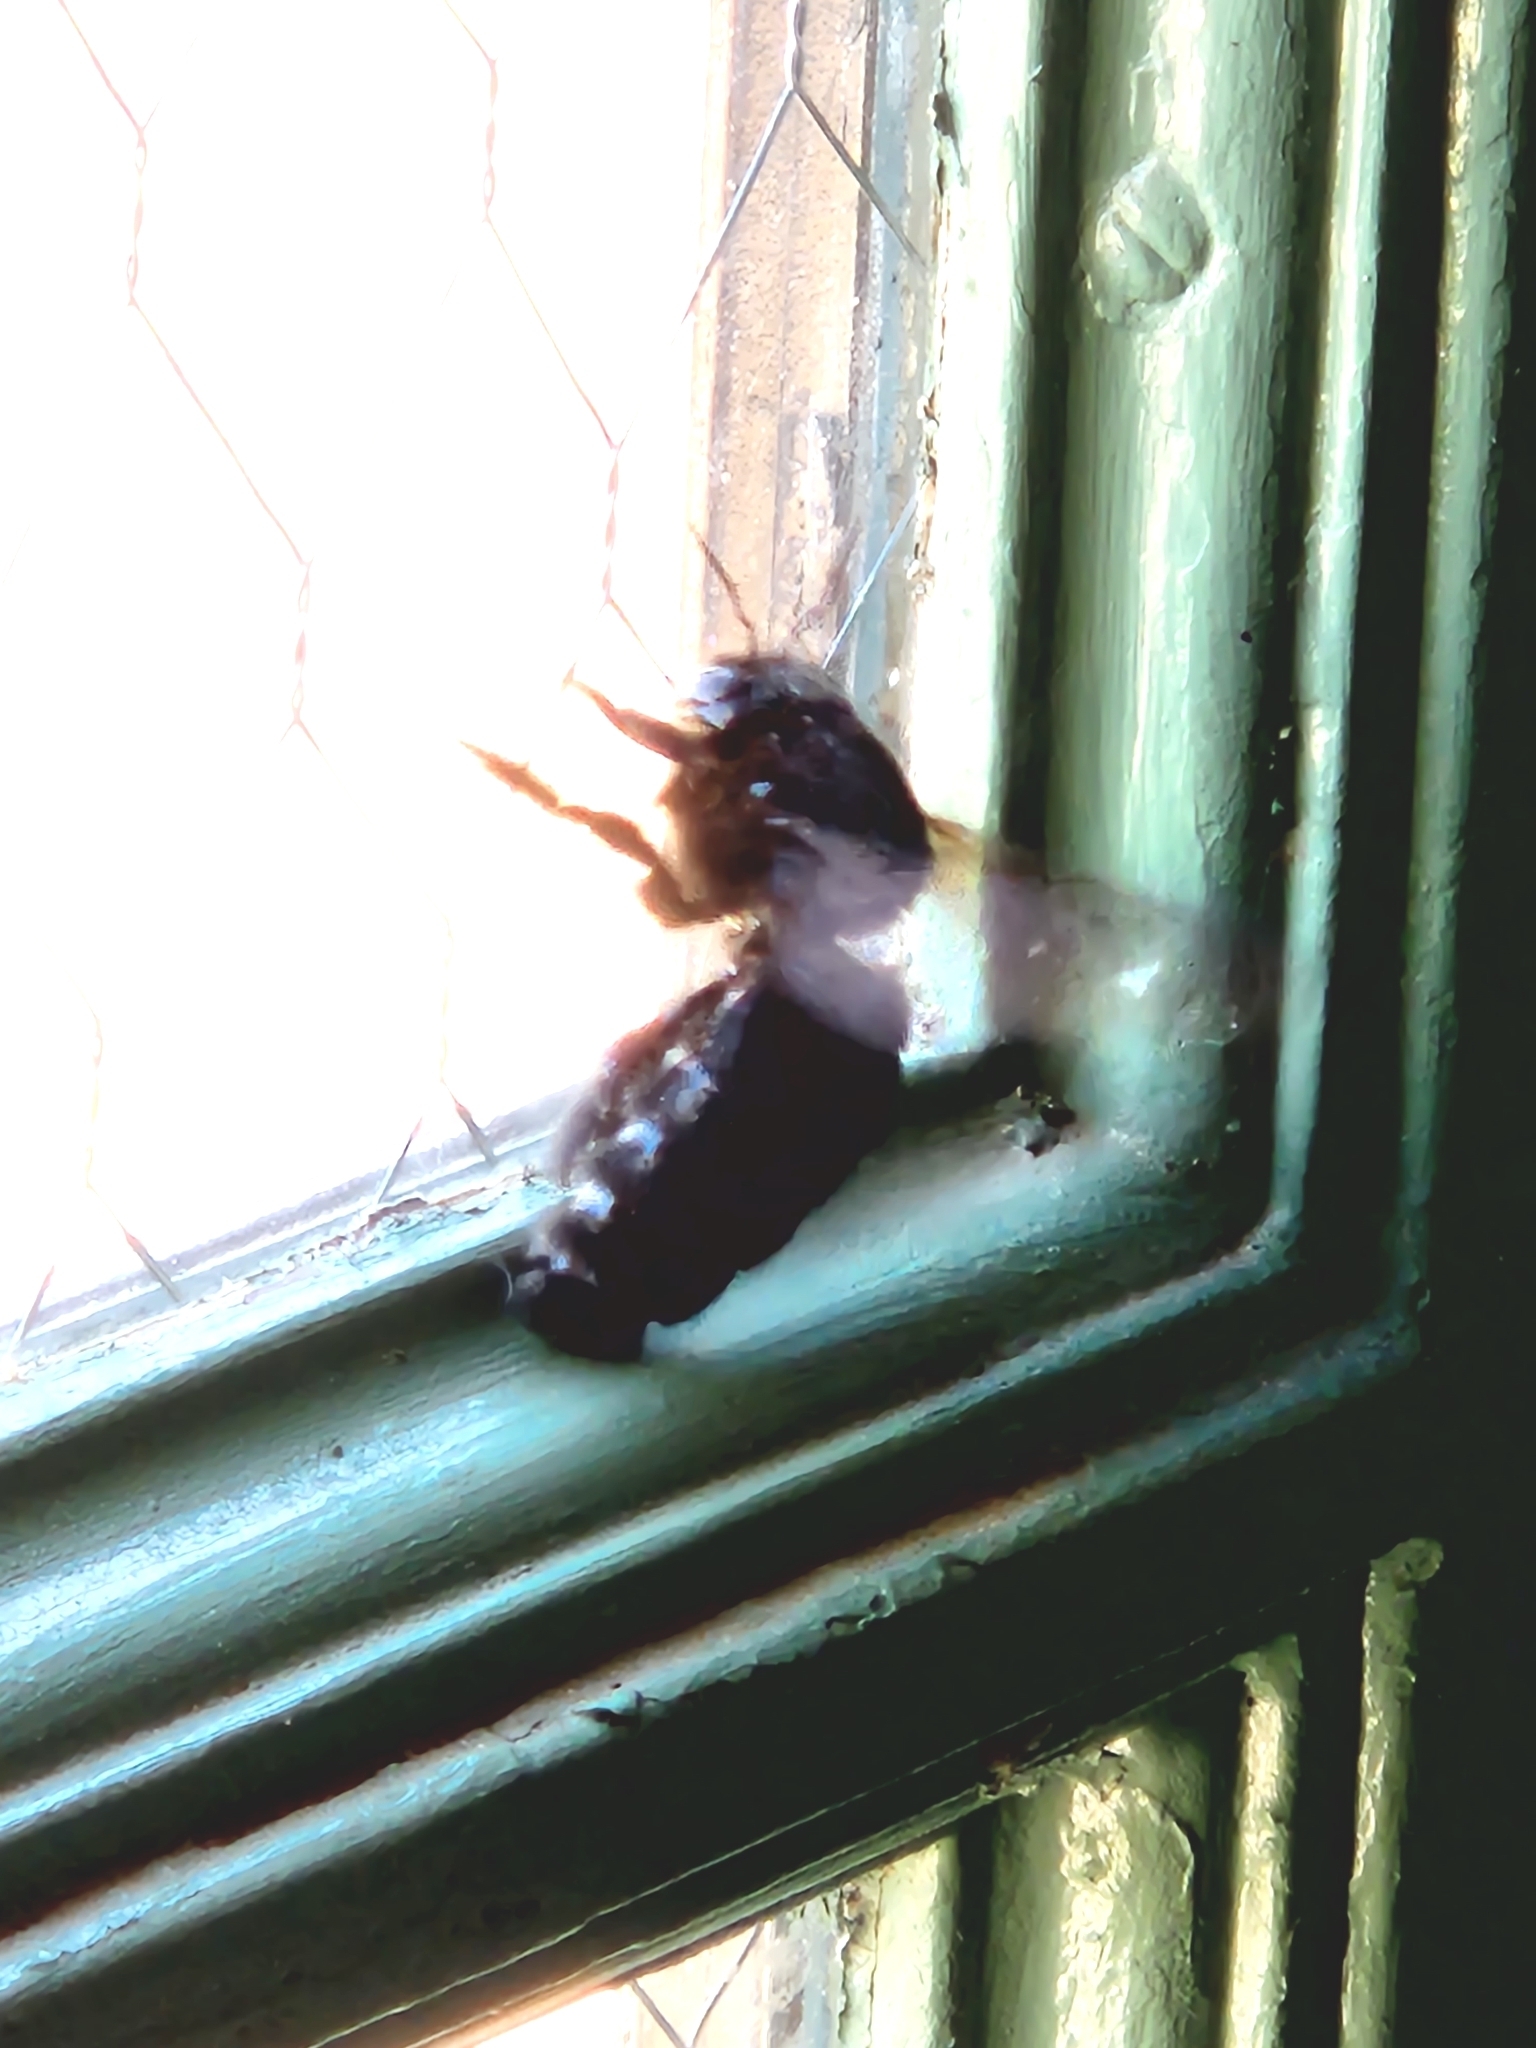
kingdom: Animalia
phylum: Arthropoda
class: Insecta
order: Hymenoptera
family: Apidae
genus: Xylocopa
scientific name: Xylocopa sonorina
